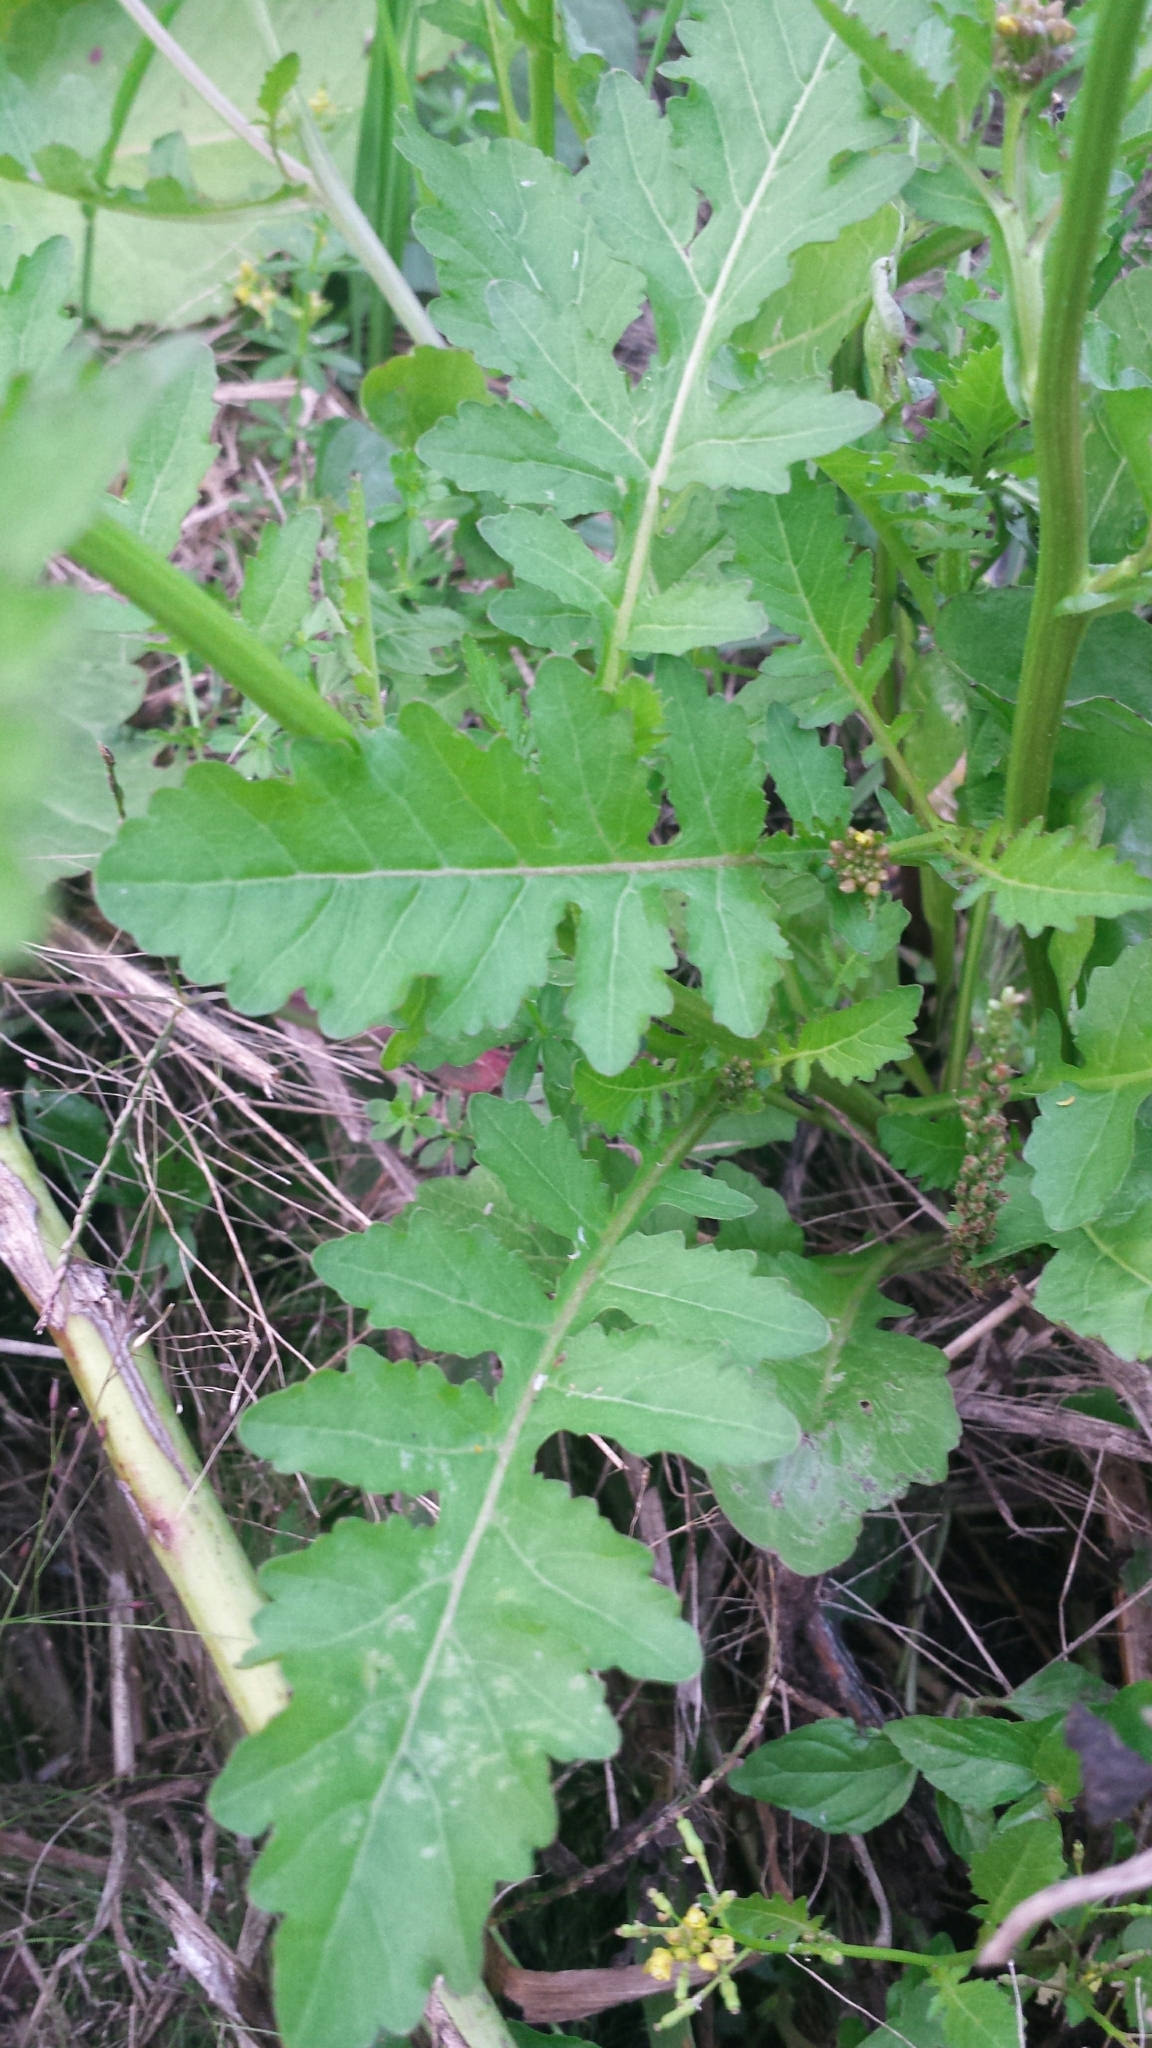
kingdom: Plantae
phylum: Tracheophyta
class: Magnoliopsida
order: Brassicales
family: Brassicaceae
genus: Rorippa
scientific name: Rorippa palustris
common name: Marsh yellow-cress
